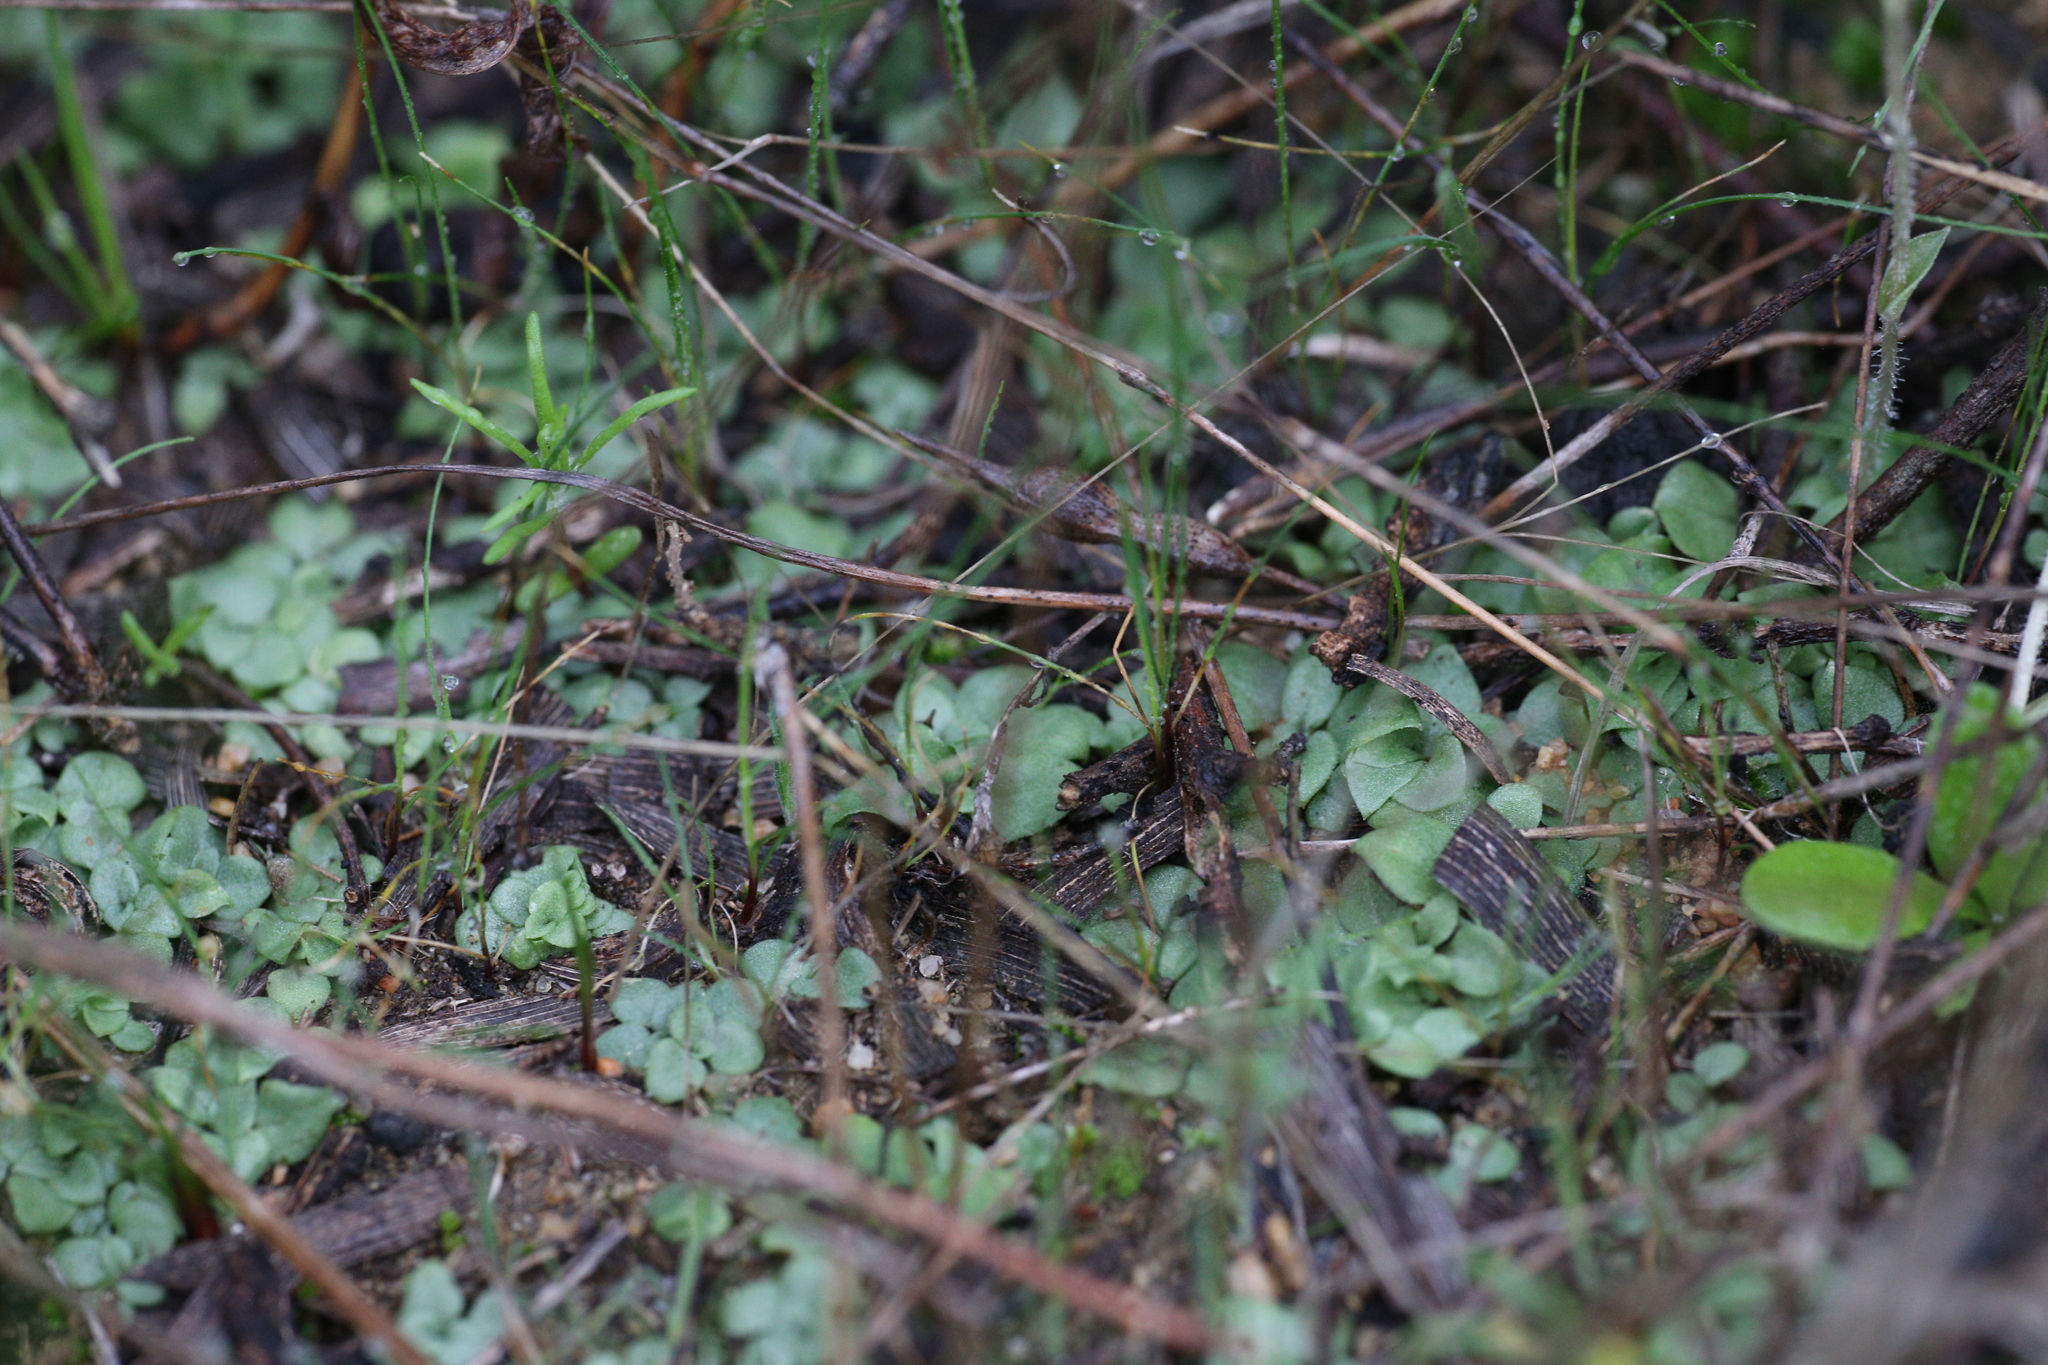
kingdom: Plantae
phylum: Tracheophyta
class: Liliopsida
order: Asparagales
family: Orchidaceae
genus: Pterostylis
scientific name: Pterostylis setulosa
